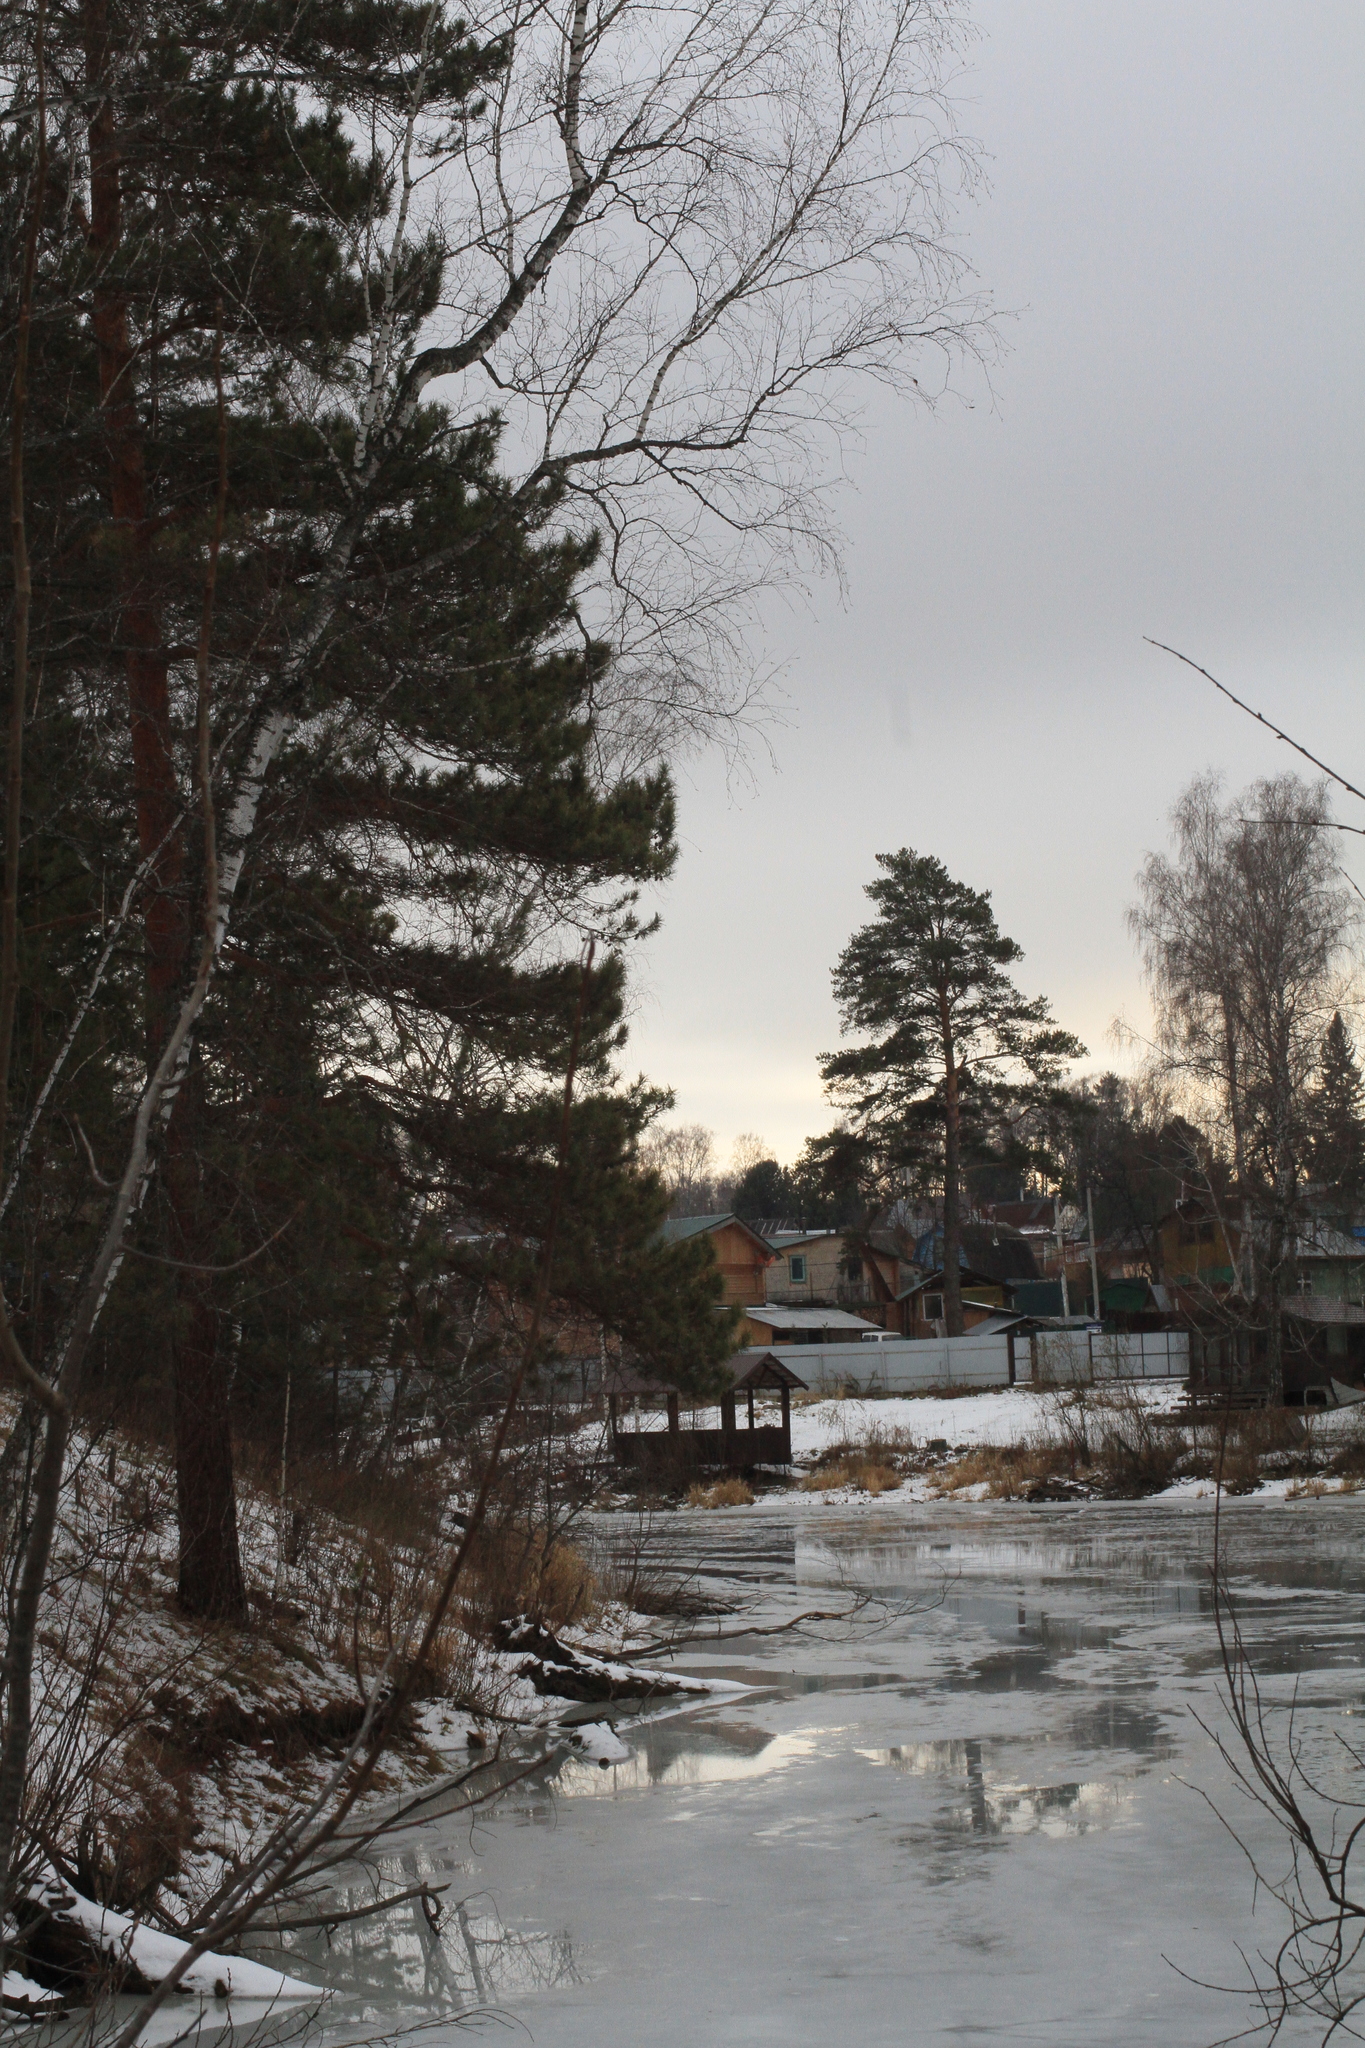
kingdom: Plantae
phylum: Tracheophyta
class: Pinopsida
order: Pinales
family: Pinaceae
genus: Pinus
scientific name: Pinus sylvestris
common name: Scots pine
